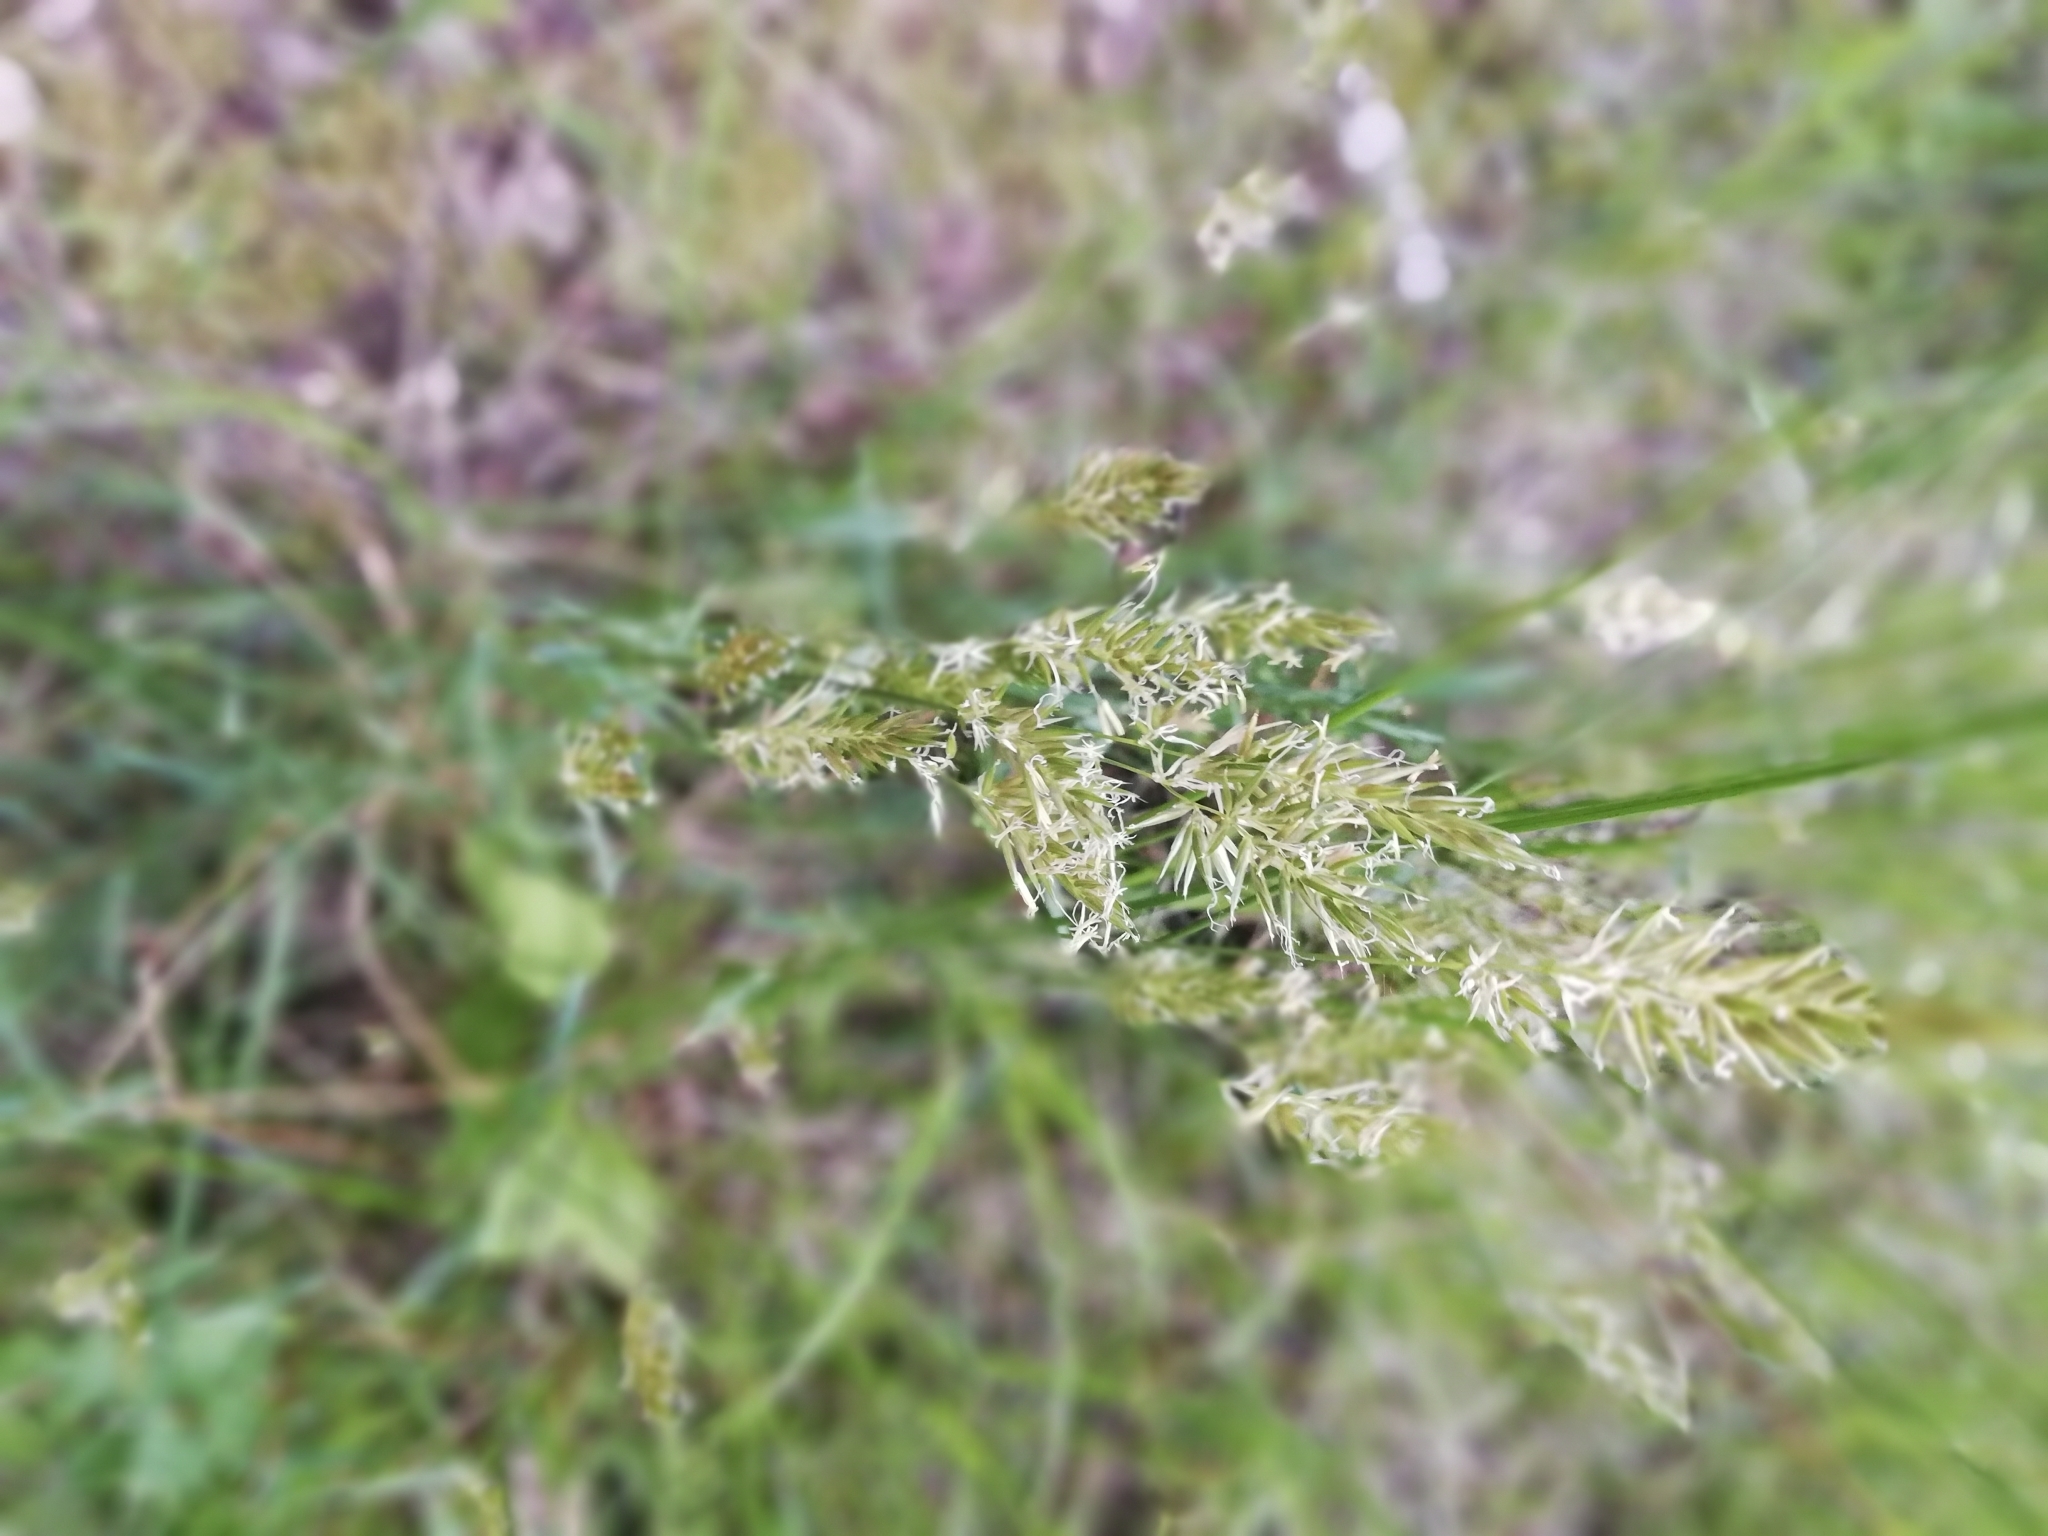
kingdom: Plantae
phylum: Tracheophyta
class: Liliopsida
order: Poales
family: Poaceae
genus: Anthoxanthum
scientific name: Anthoxanthum odoratum
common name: Sweet vernalgrass
